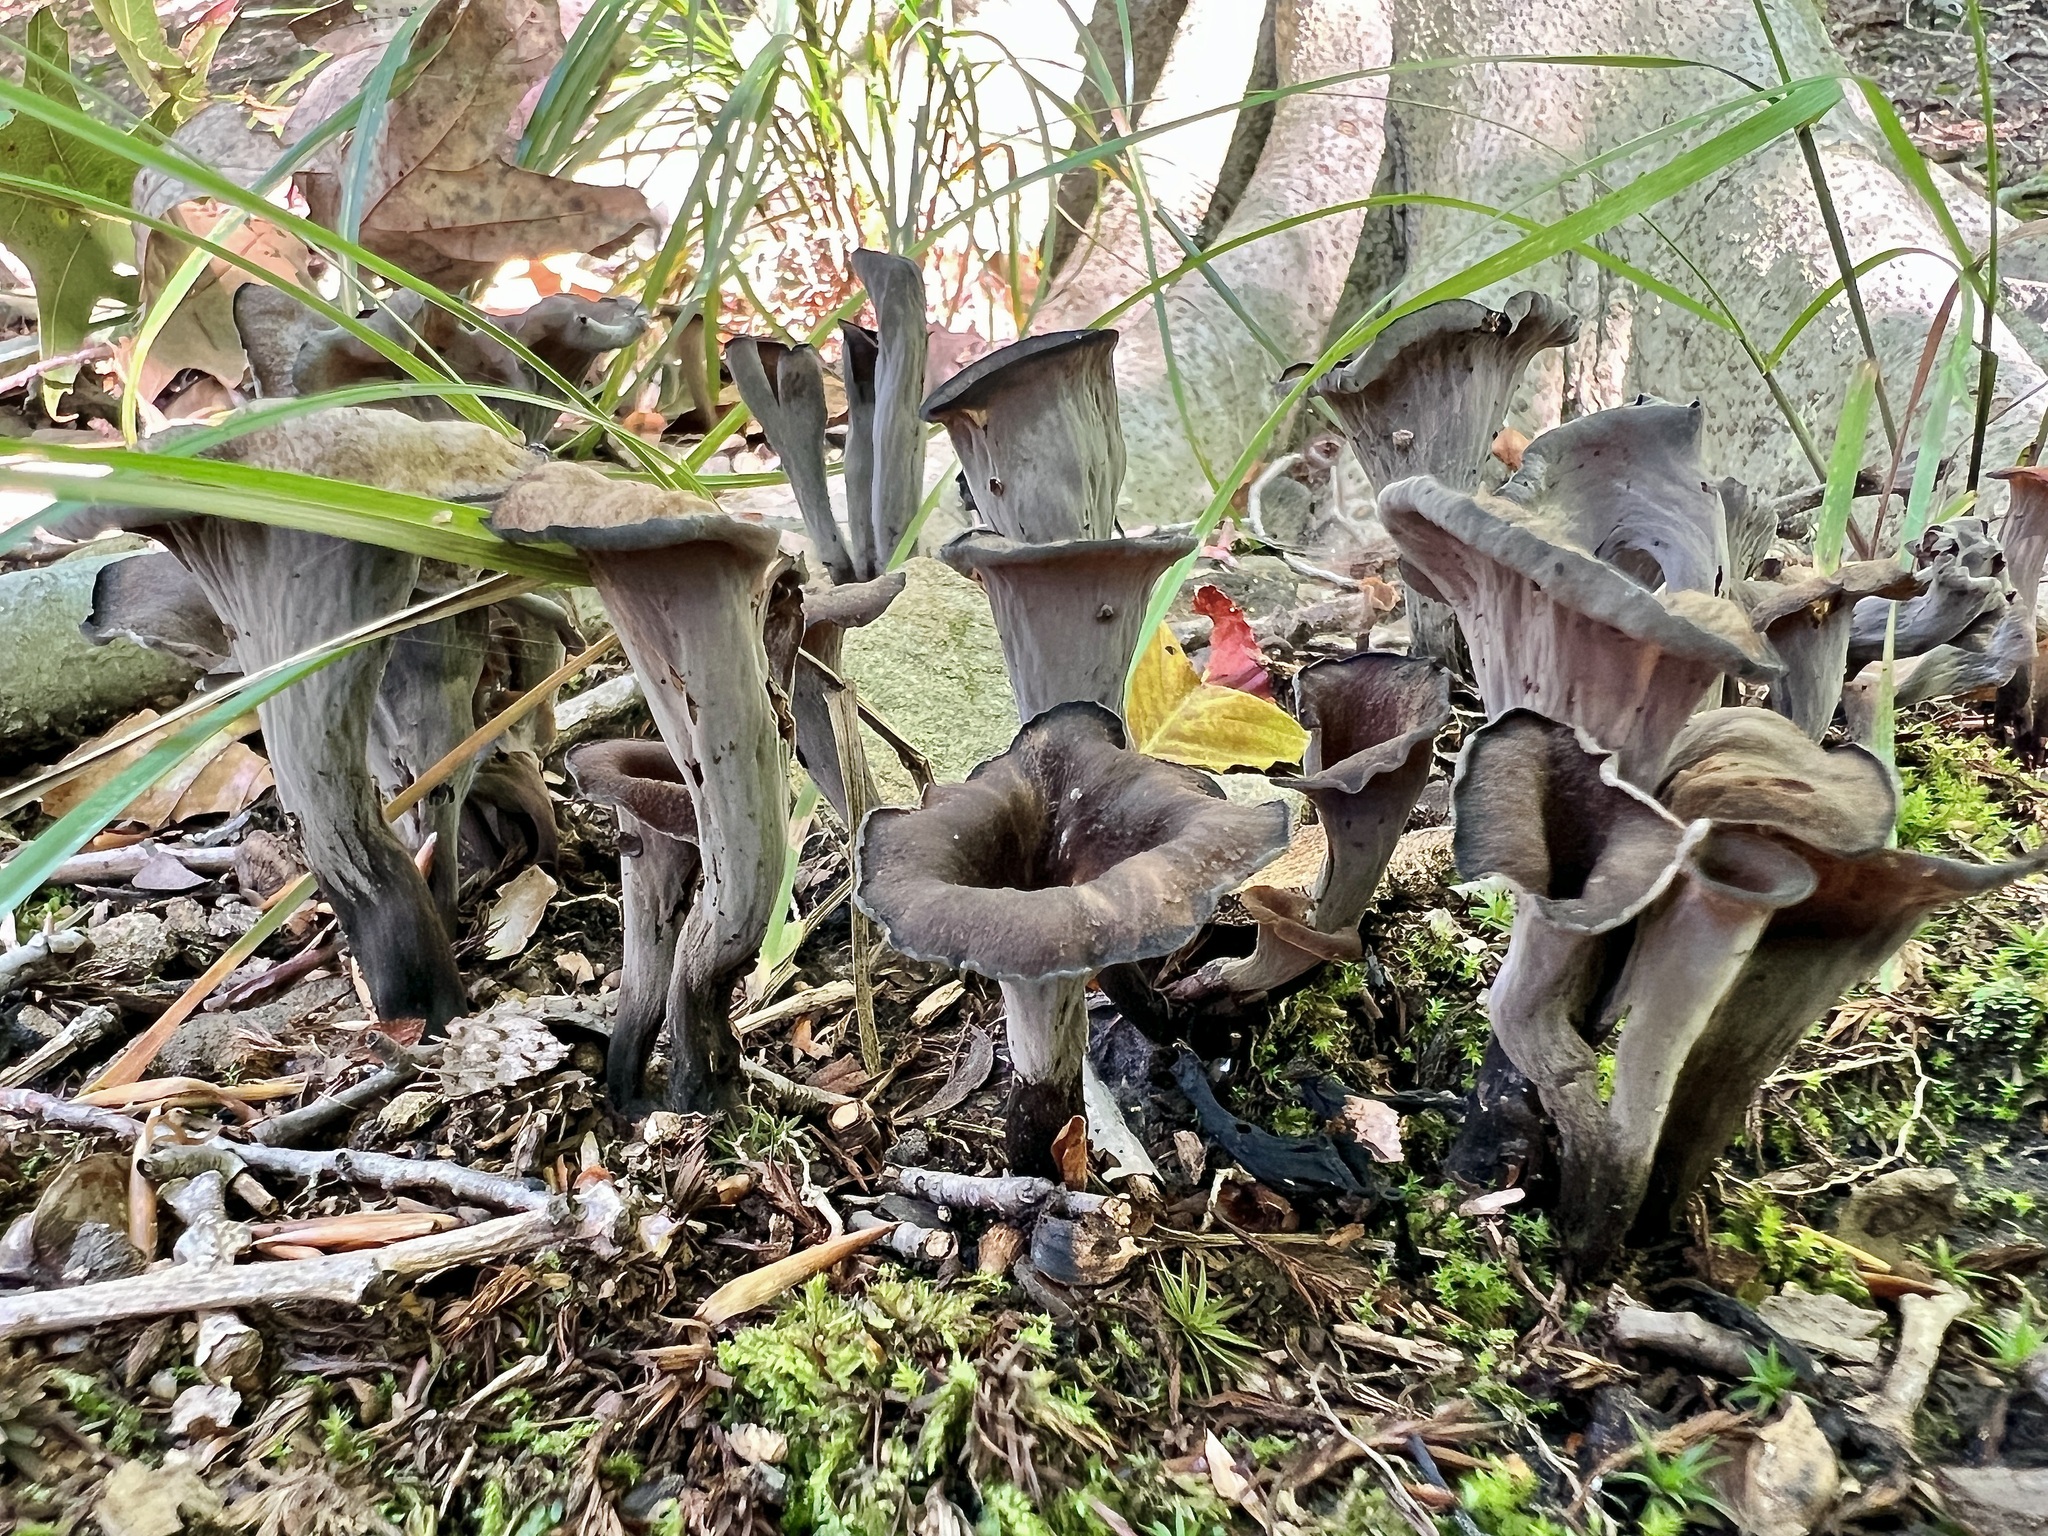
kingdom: Fungi
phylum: Basidiomycota
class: Agaricomycetes
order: Cantharellales
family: Hydnaceae
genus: Craterellus
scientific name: Craterellus cornucopioides
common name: Horn of plenty
